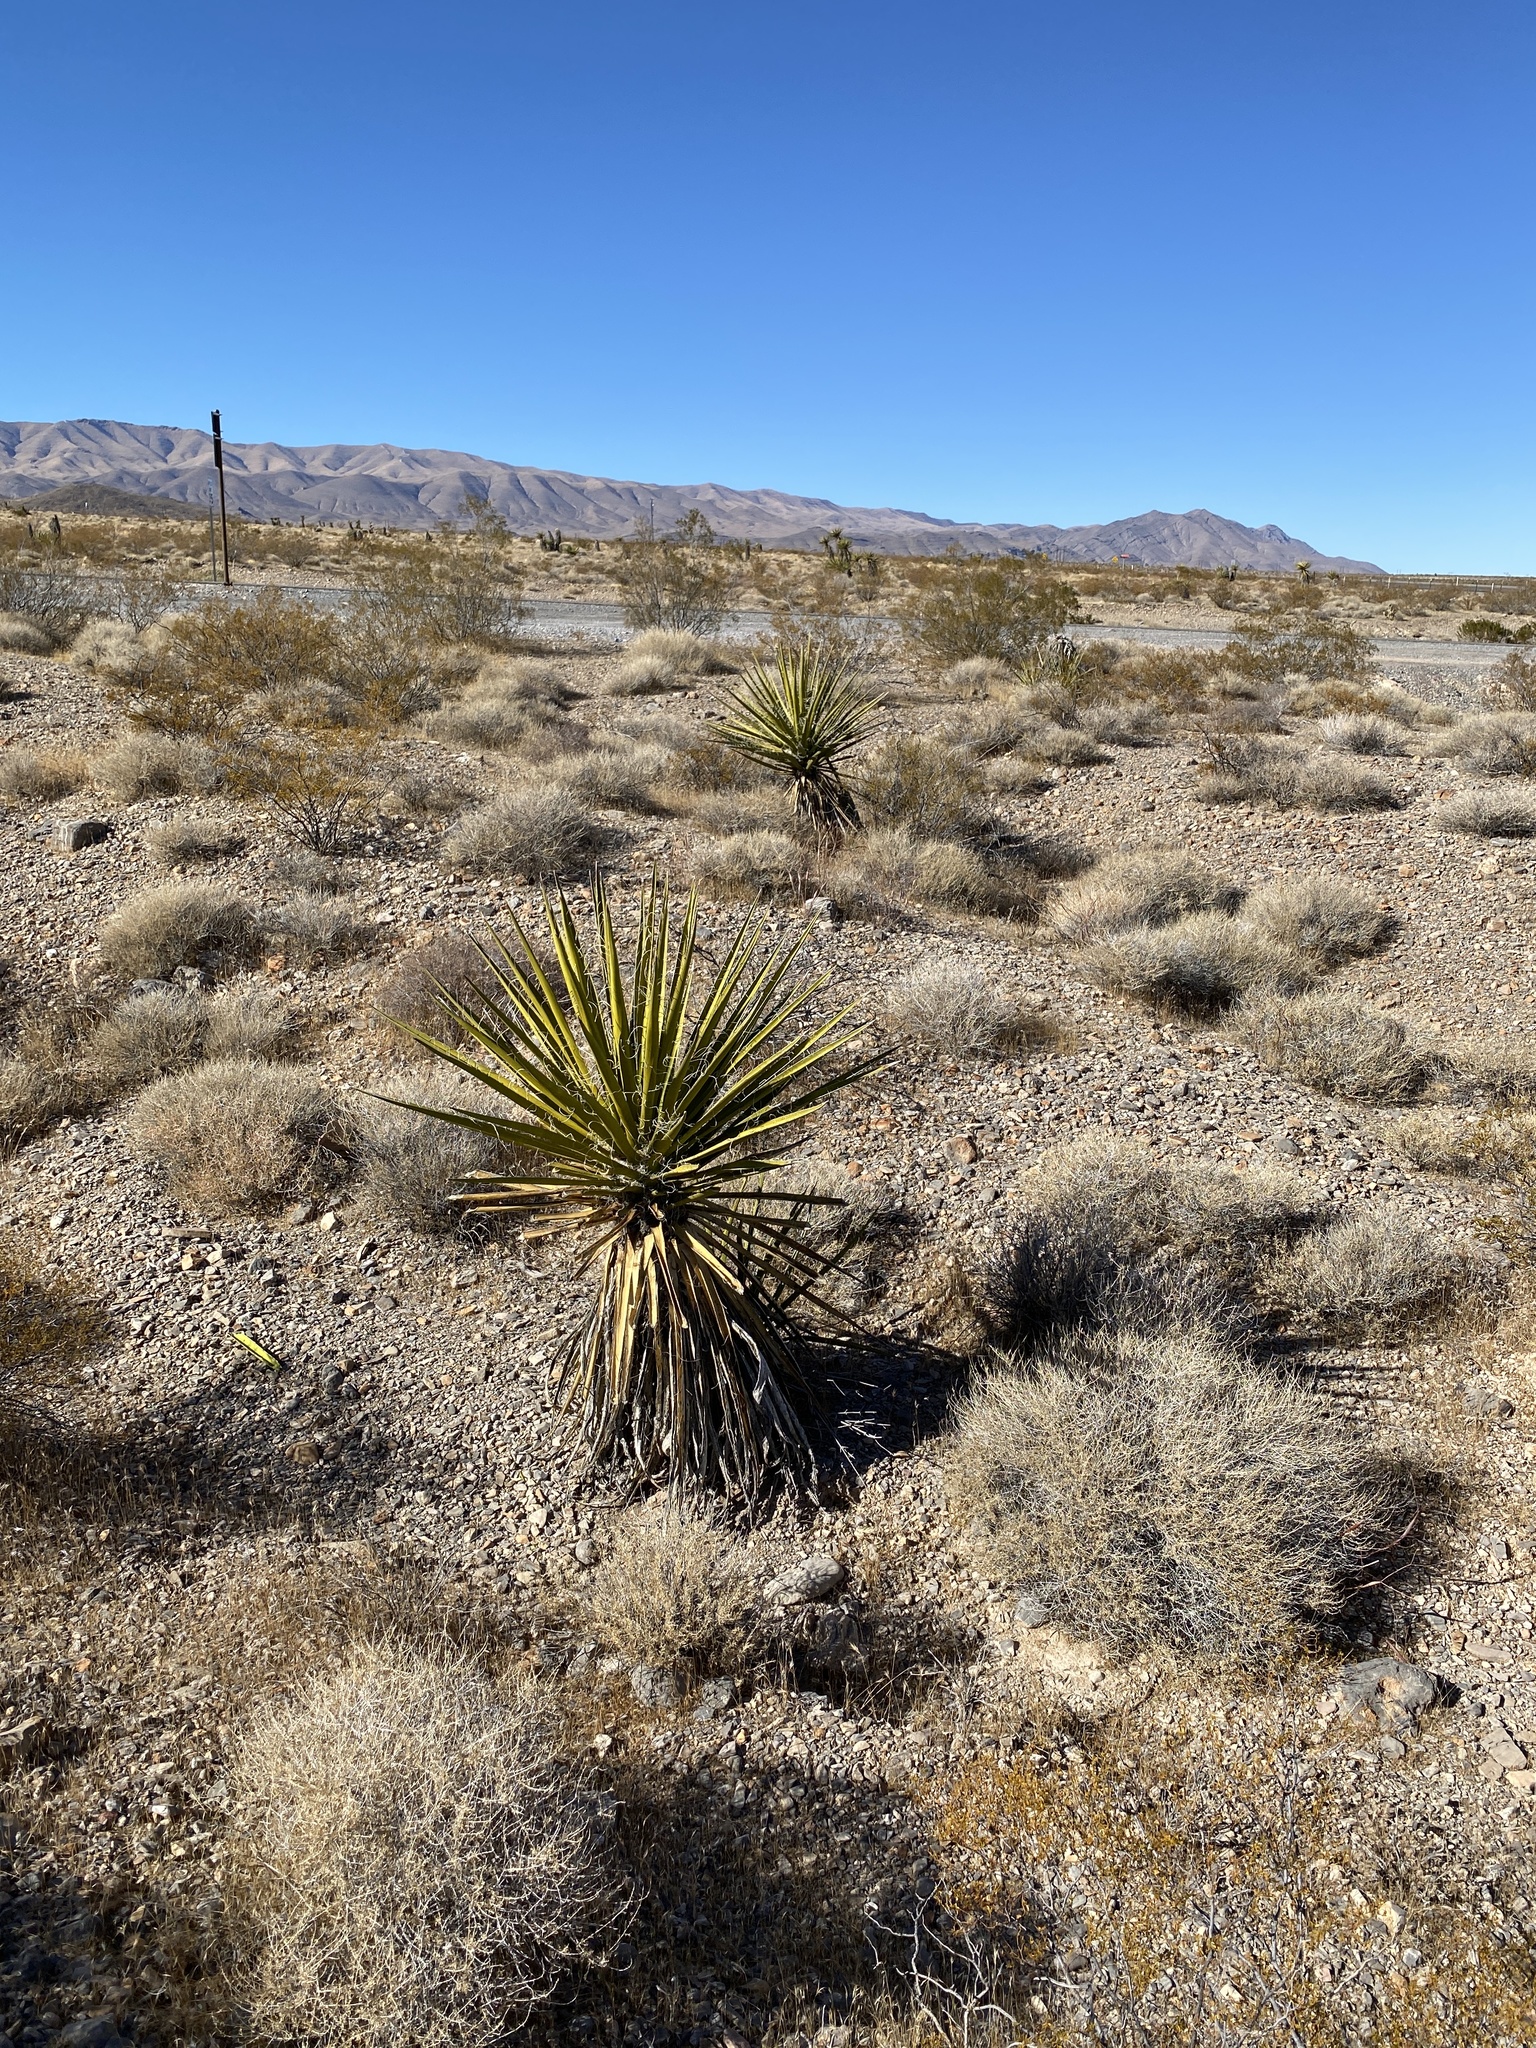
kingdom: Plantae
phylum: Tracheophyta
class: Liliopsida
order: Asparagales
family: Asparagaceae
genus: Yucca
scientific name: Yucca schidigera
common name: Mojave yucca
